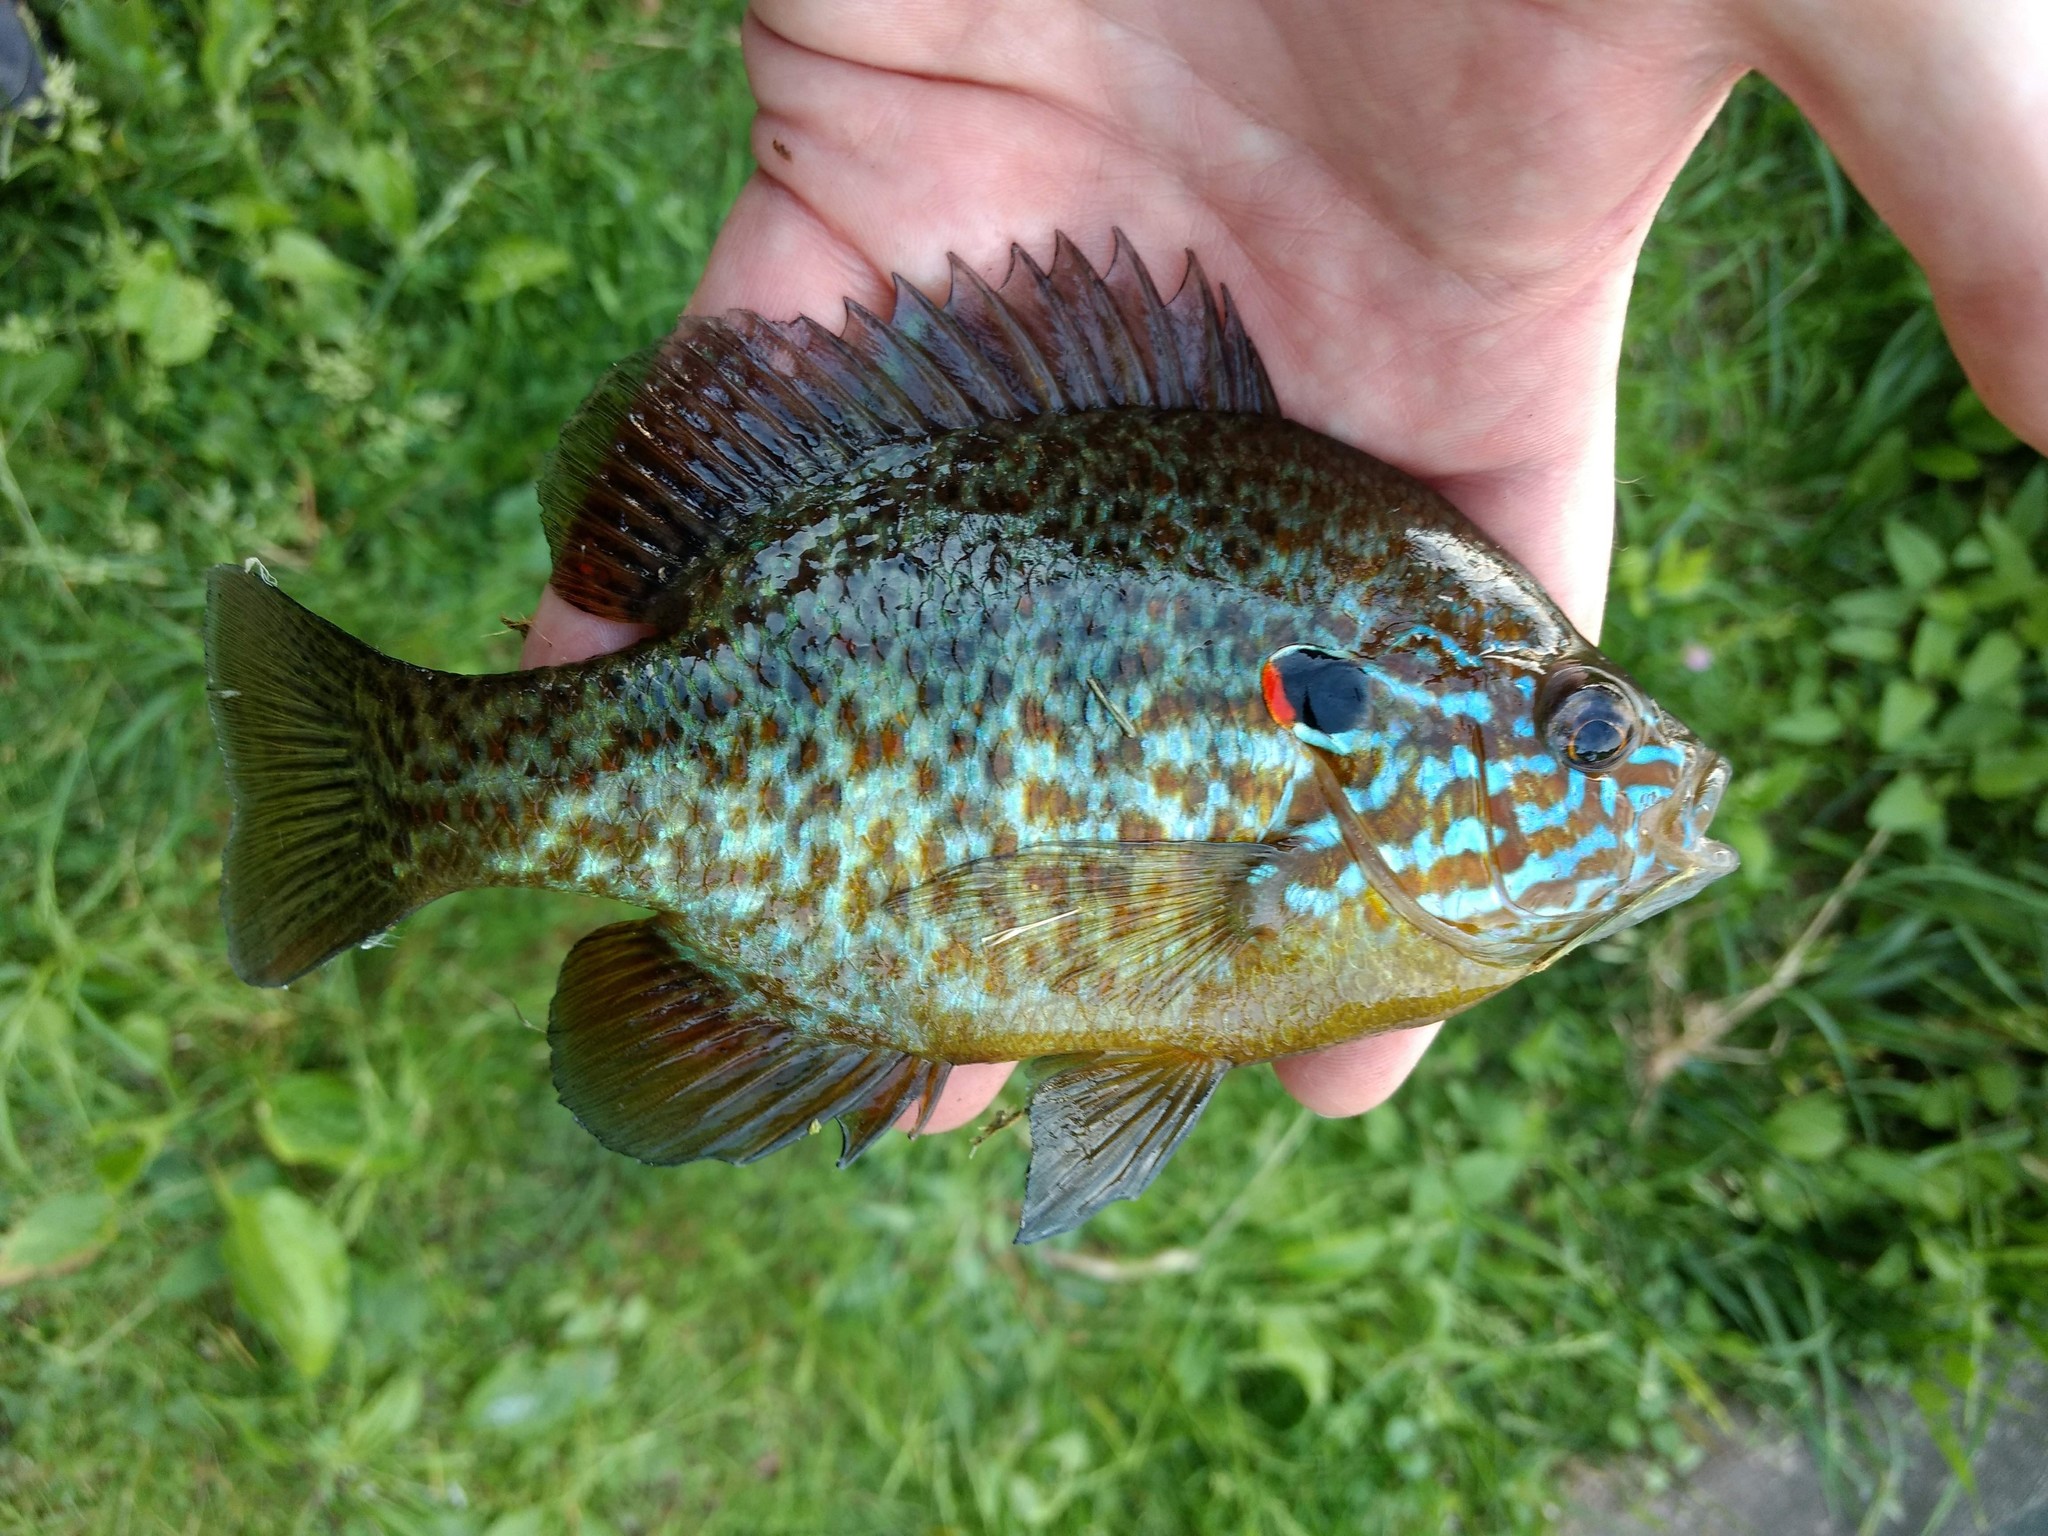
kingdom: Animalia
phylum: Chordata
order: Perciformes
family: Centrarchidae
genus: Lepomis
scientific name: Lepomis gibbosus
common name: Pumpkinseed
